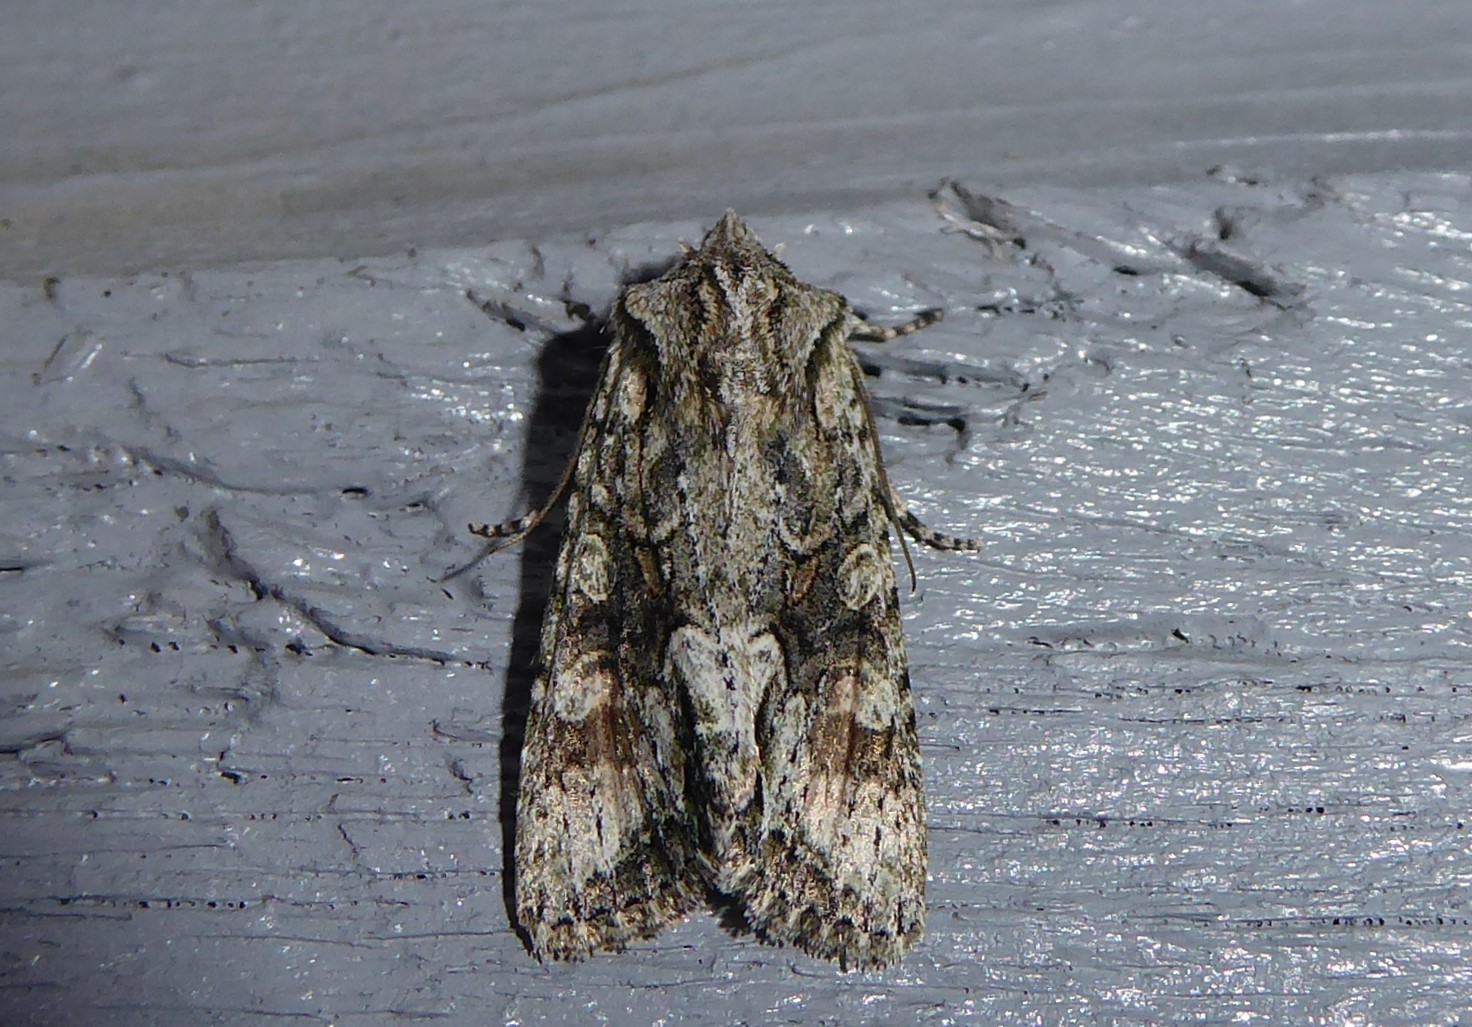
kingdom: Animalia
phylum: Arthropoda
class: Insecta
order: Lepidoptera
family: Noctuidae
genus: Ichneutica
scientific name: Ichneutica mutans
